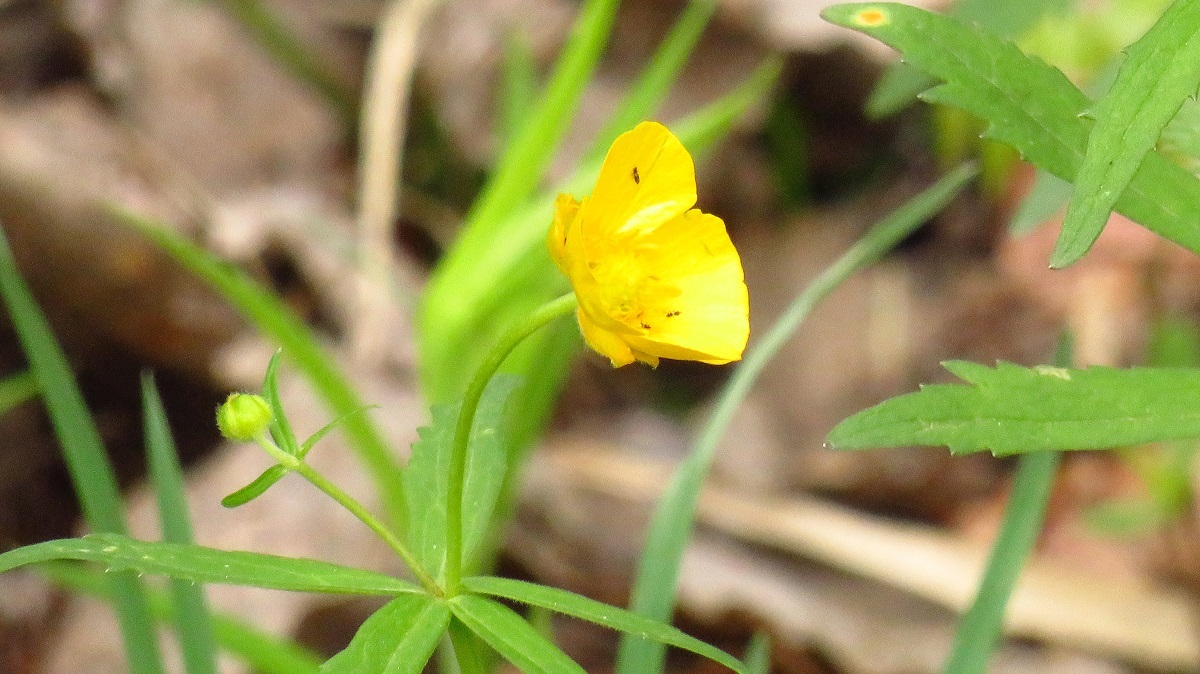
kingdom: Plantae
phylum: Tracheophyta
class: Magnoliopsida
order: Ranunculales
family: Ranunculaceae
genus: Ranunculus
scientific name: Ranunculus cassubicus
